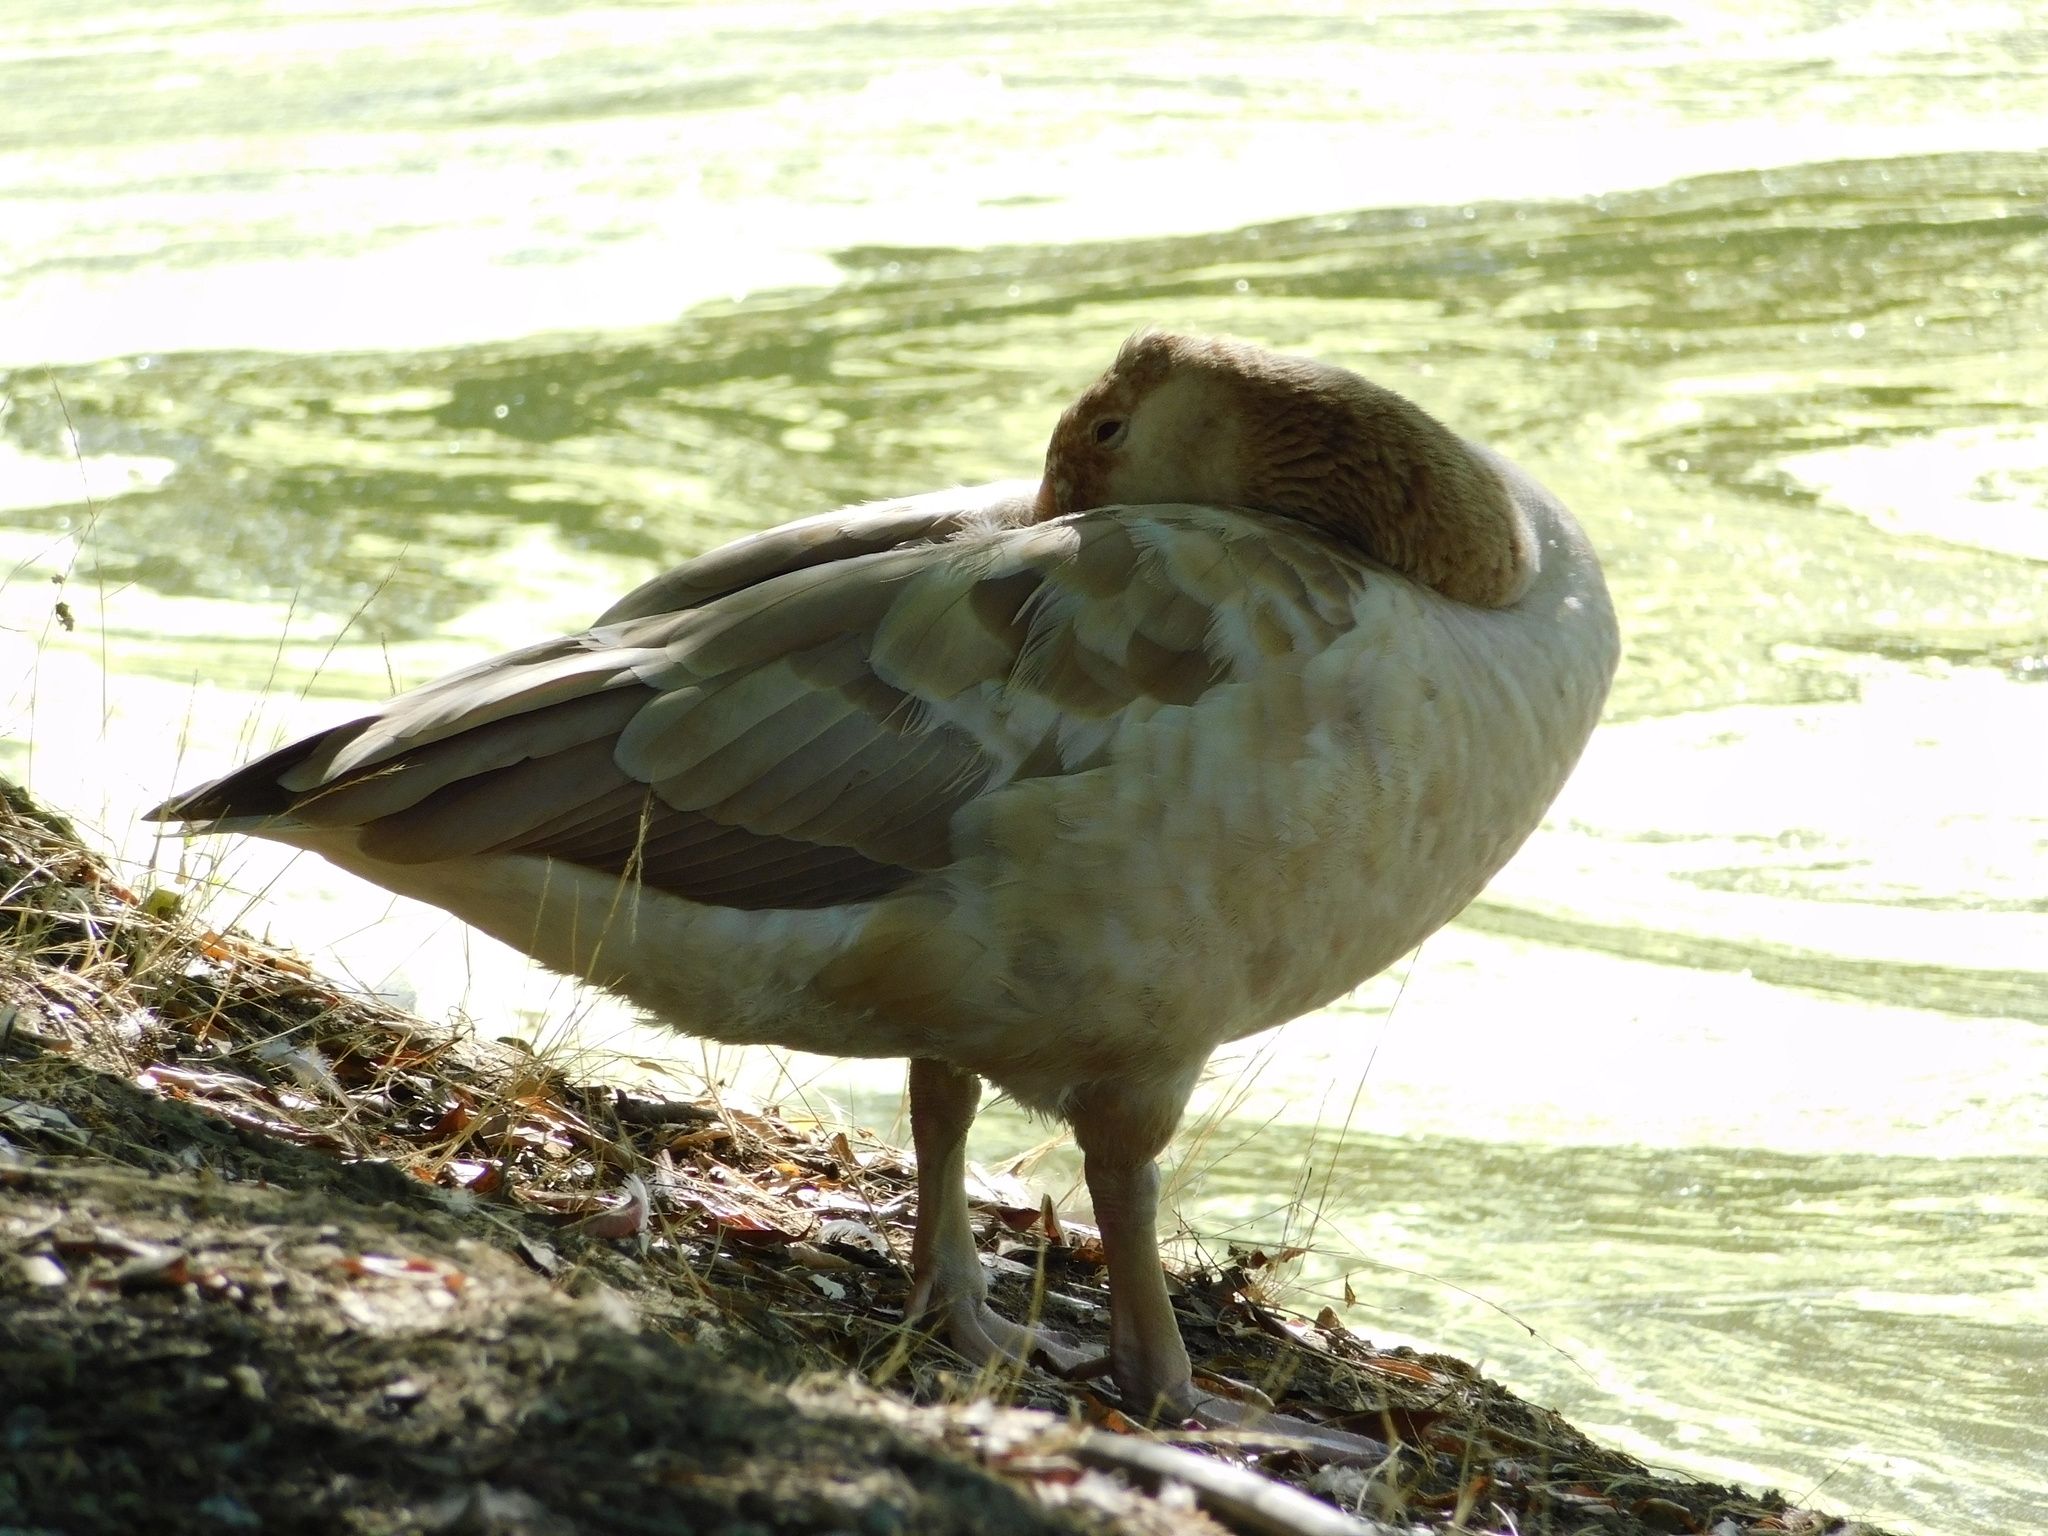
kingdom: Animalia
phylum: Chordata
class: Aves
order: Anseriformes
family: Anatidae
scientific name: Anatidae
